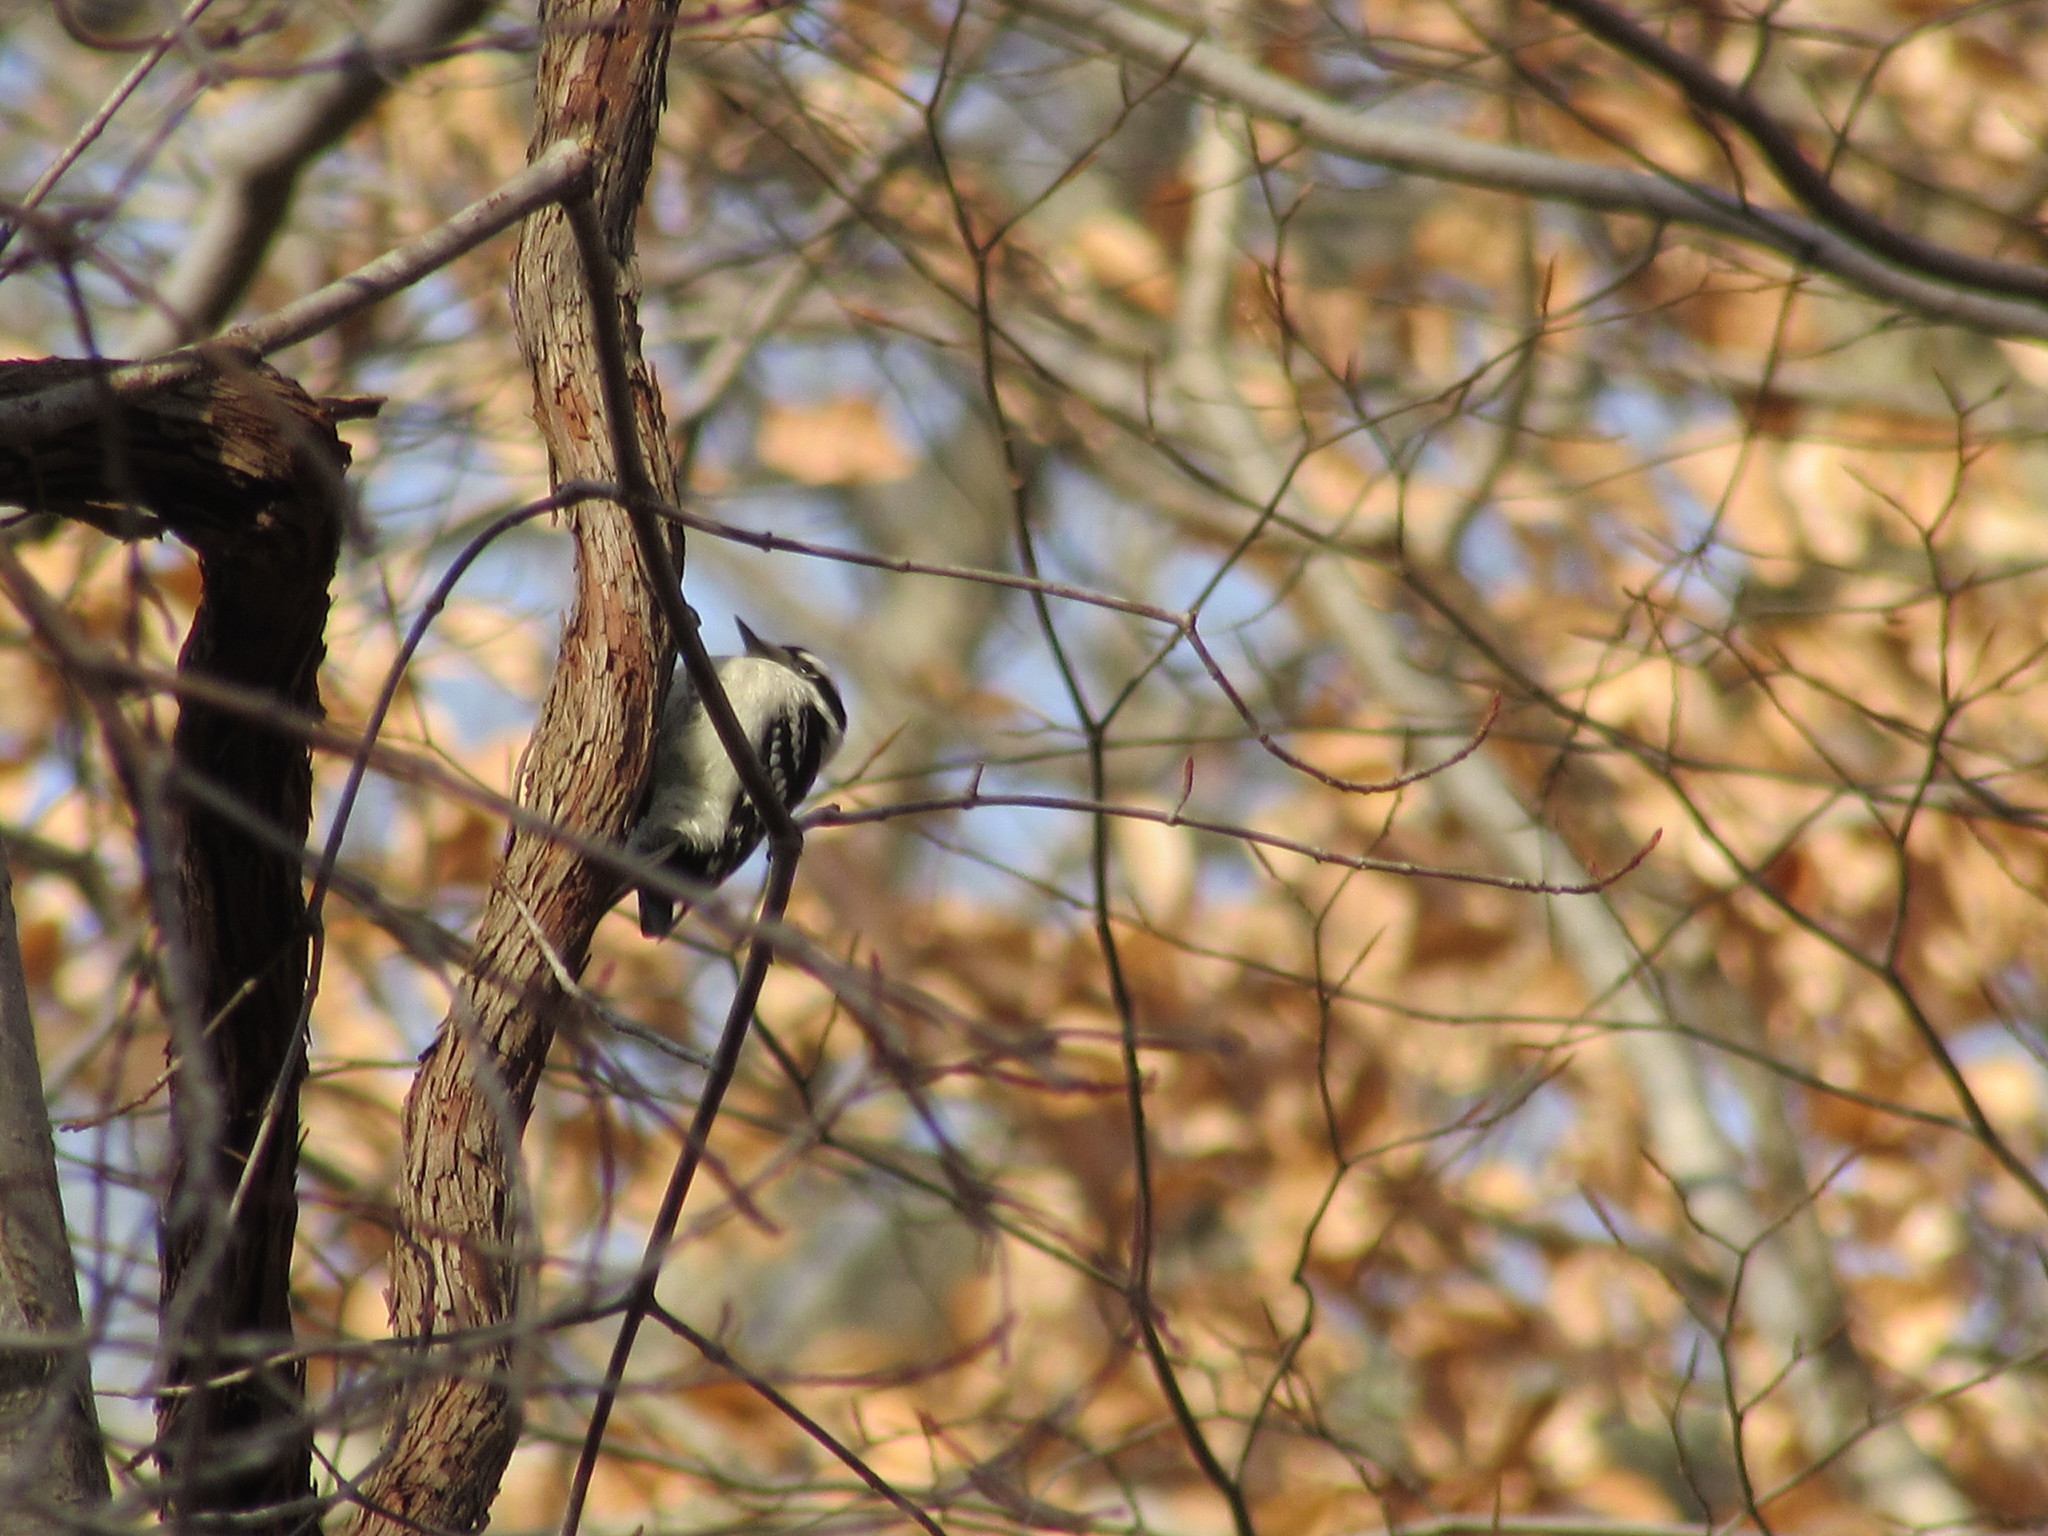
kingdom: Animalia
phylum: Chordata
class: Aves
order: Piciformes
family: Picidae
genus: Dryobates
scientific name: Dryobates pubescens
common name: Downy woodpecker
